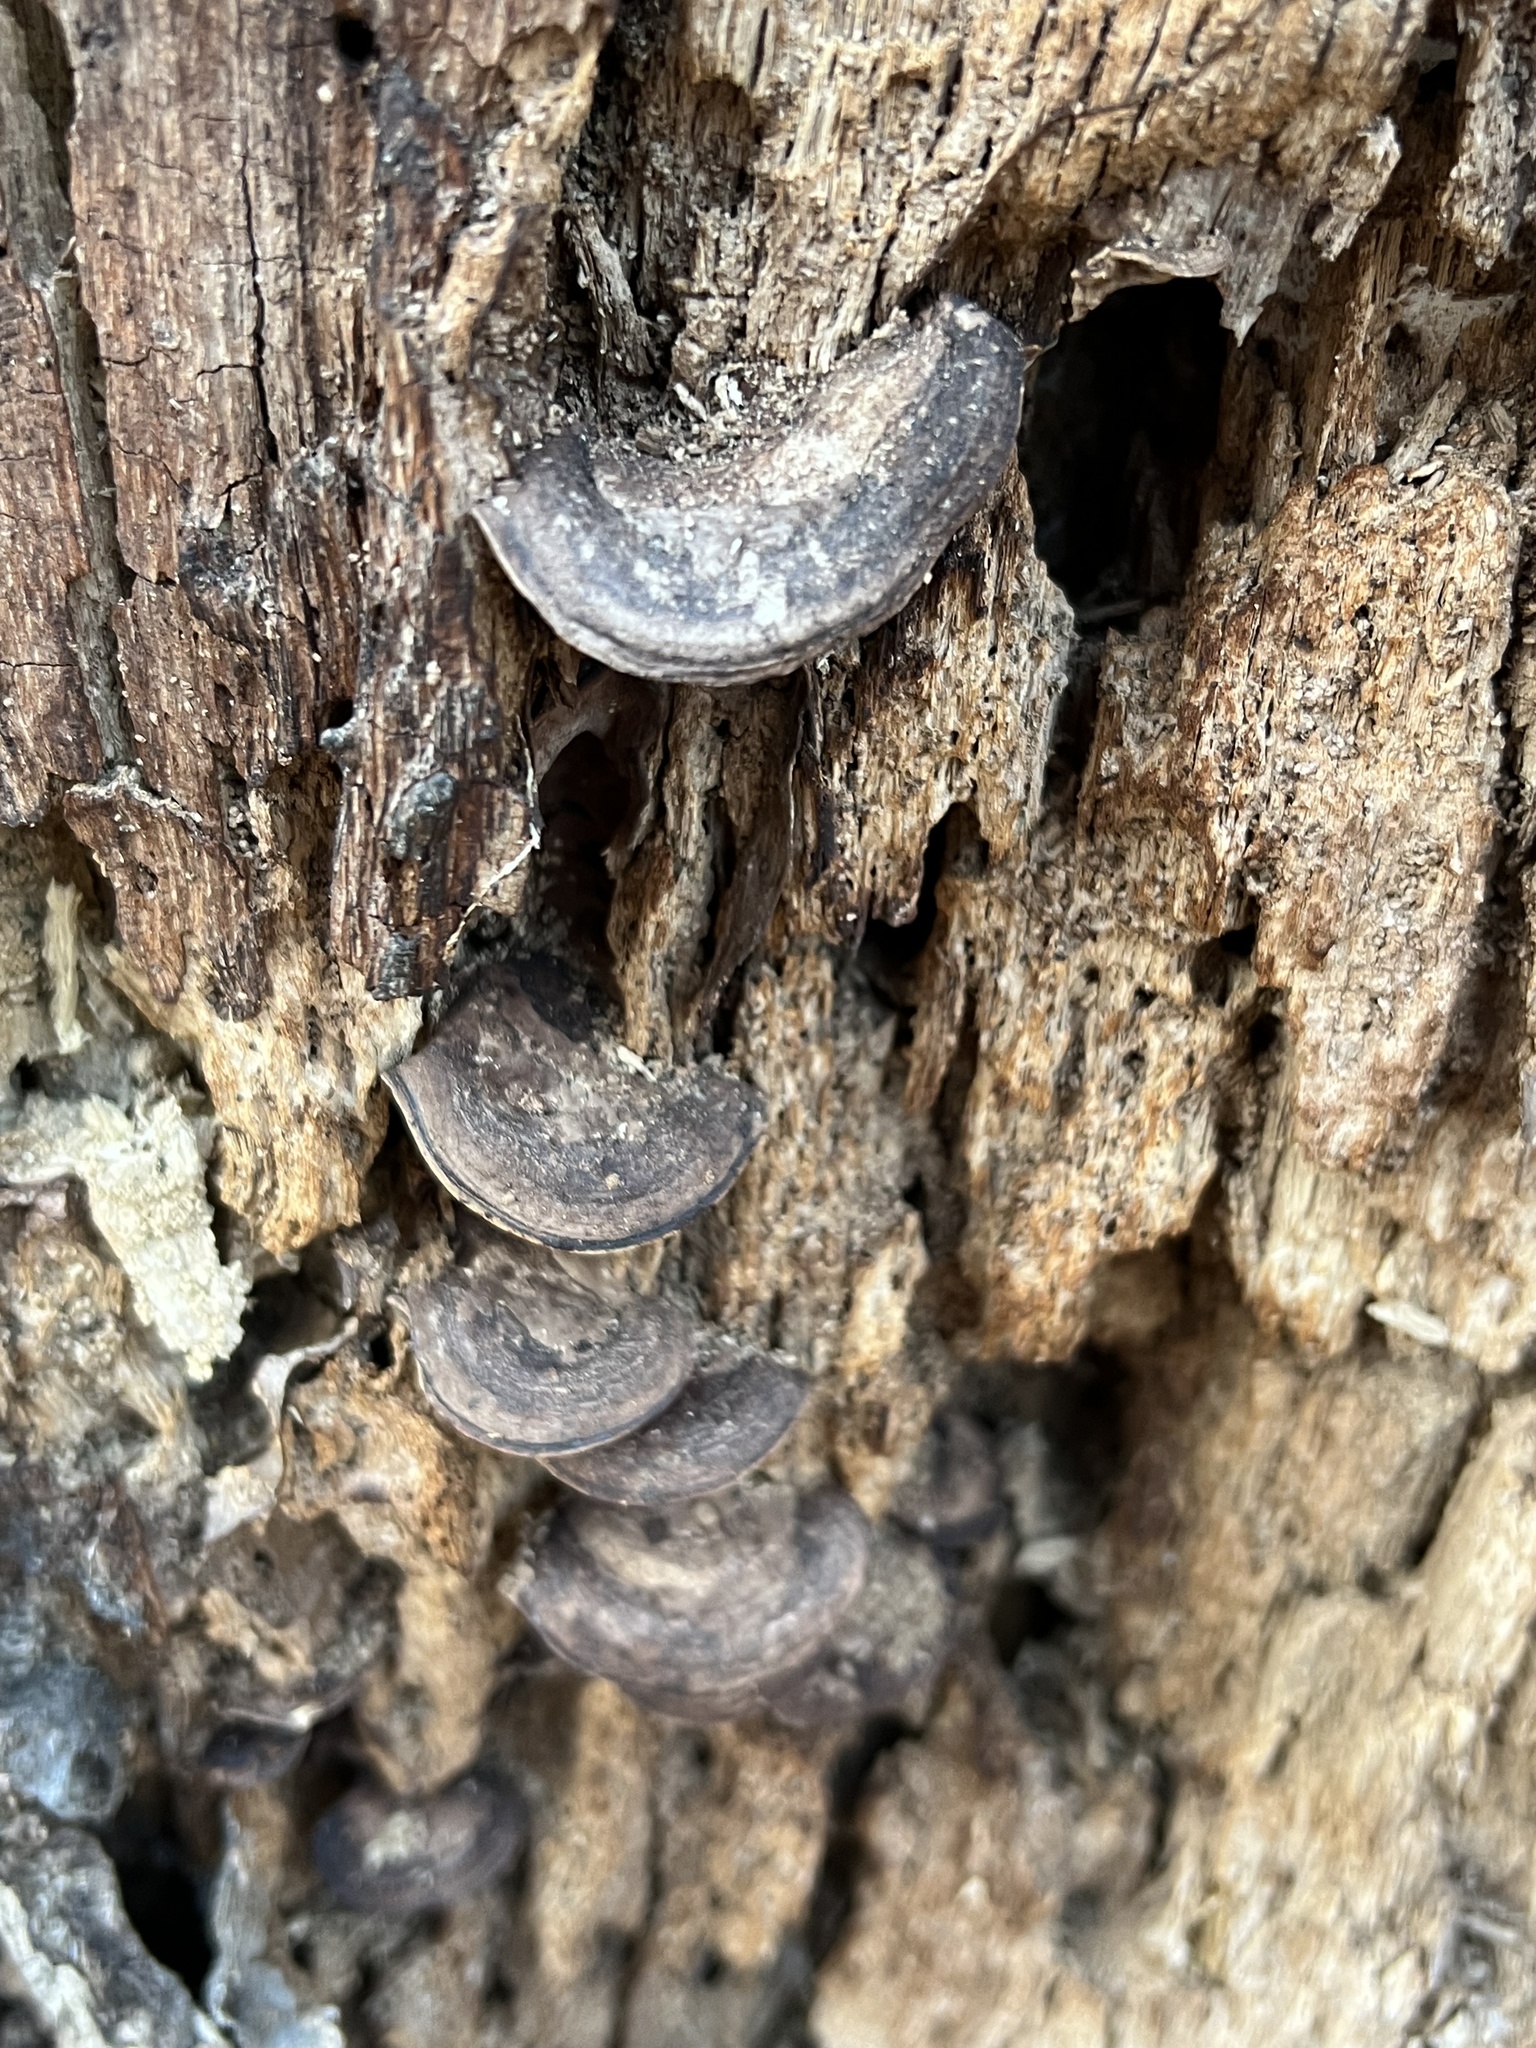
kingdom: Fungi
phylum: Basidiomycota
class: Agaricomycetes
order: Polyporales
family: Steccherinaceae
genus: Nigroporus
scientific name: Nigroporus vinosus
